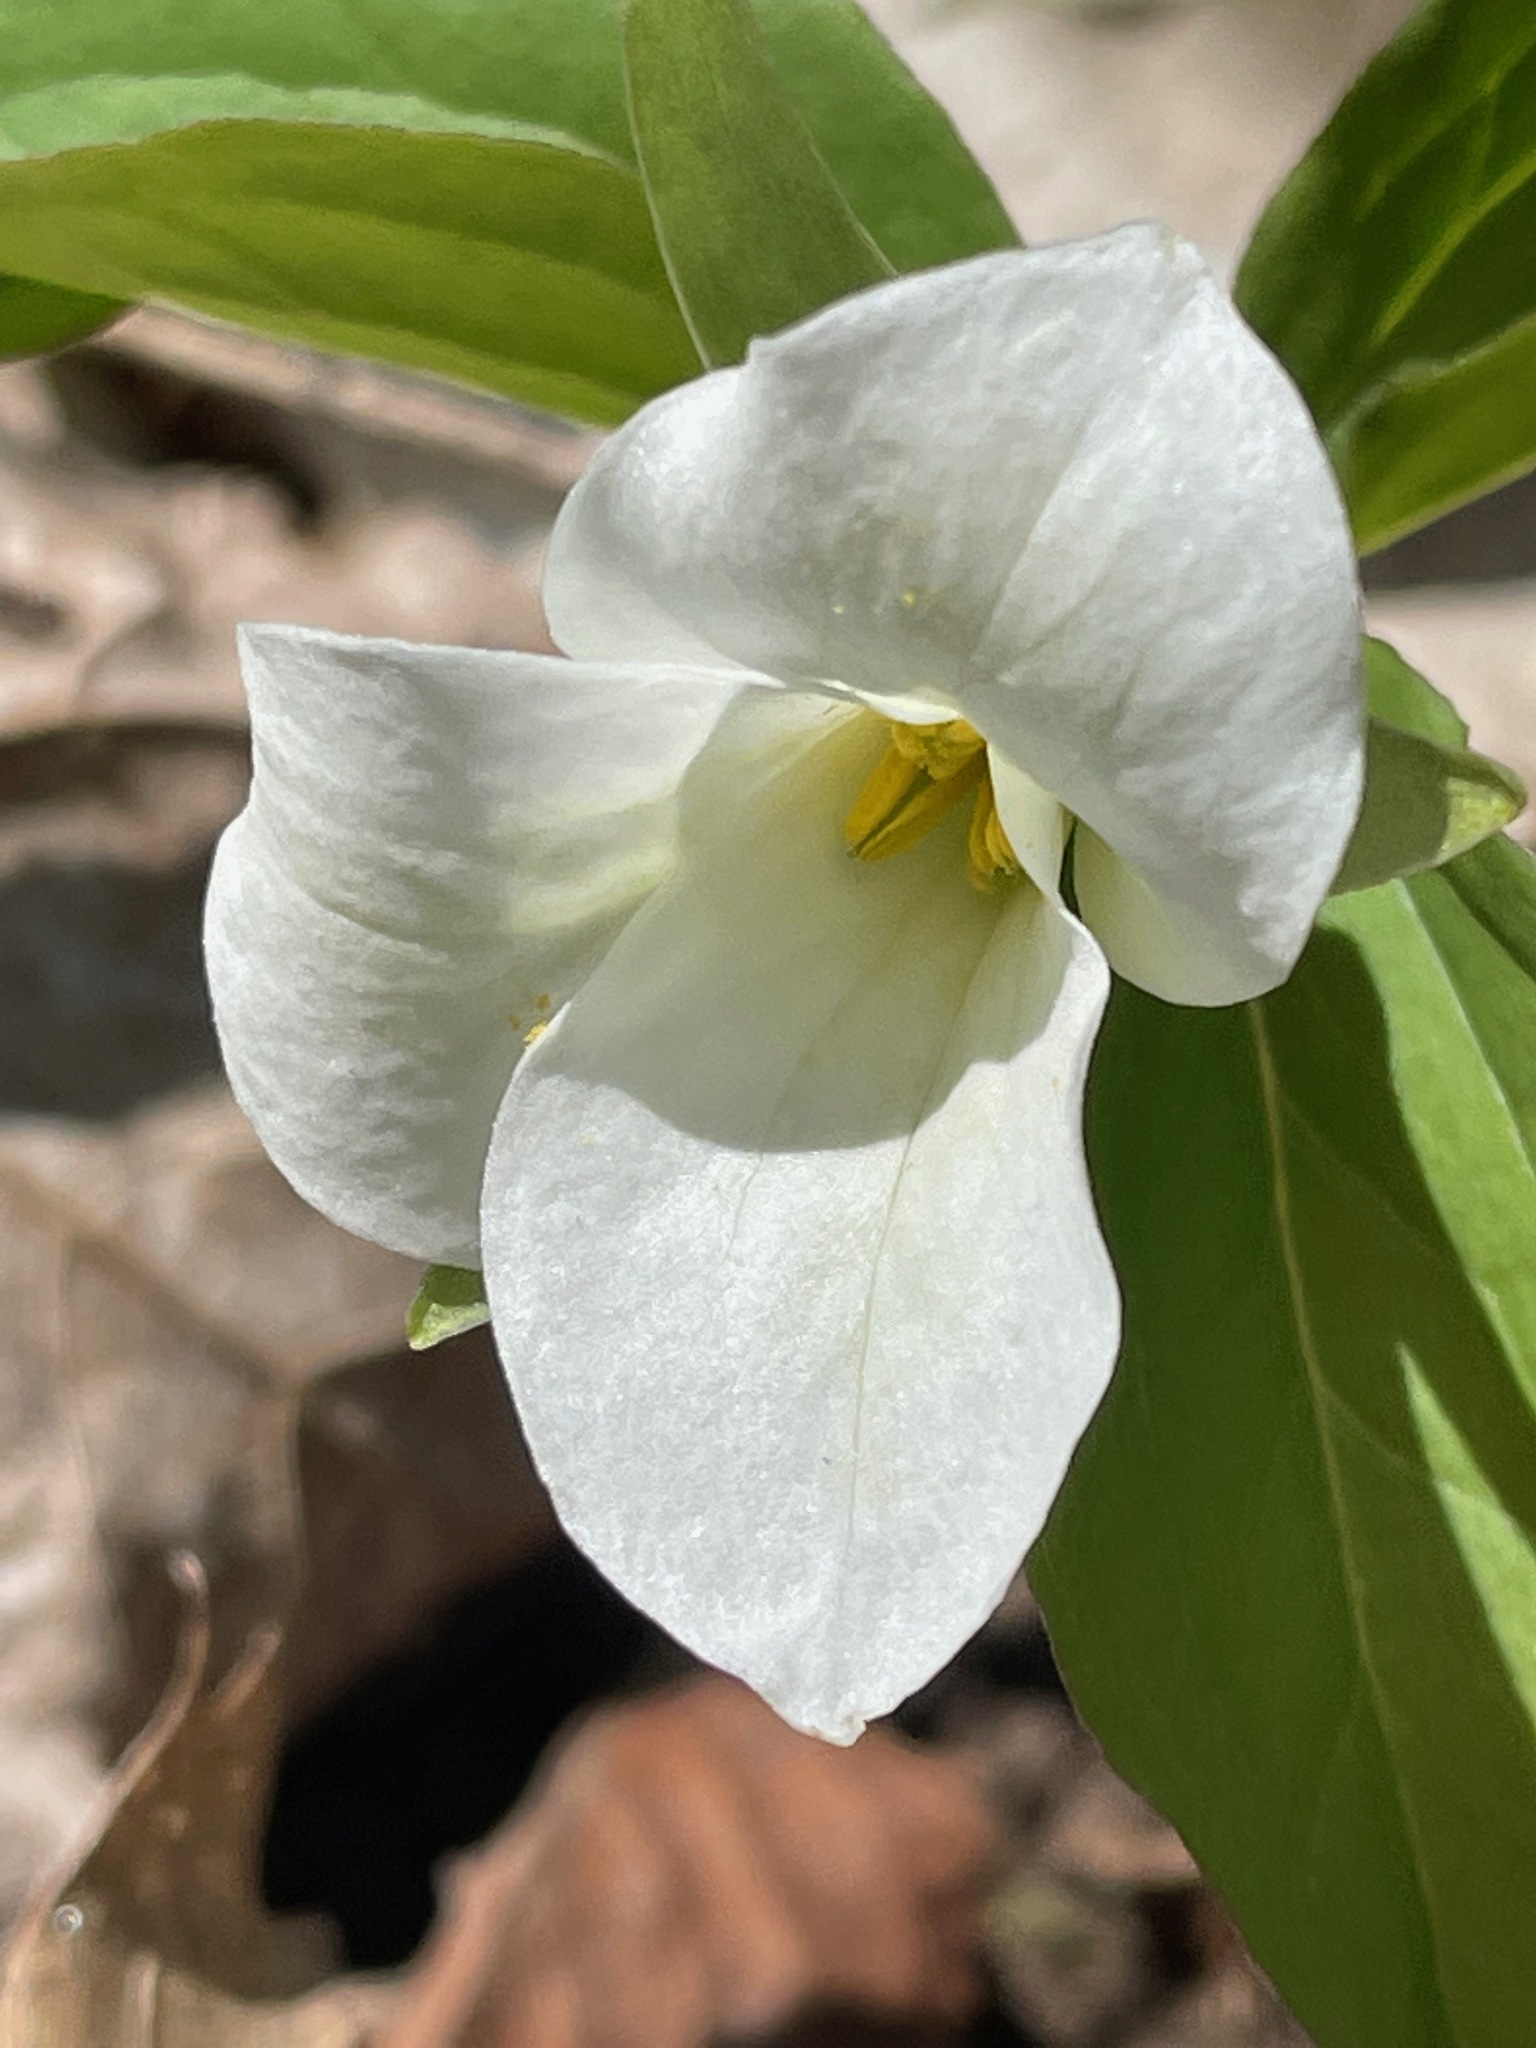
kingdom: Plantae
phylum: Tracheophyta
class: Liliopsida
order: Liliales
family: Melanthiaceae
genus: Trillium
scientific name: Trillium grandiflorum
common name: Great white trillium
